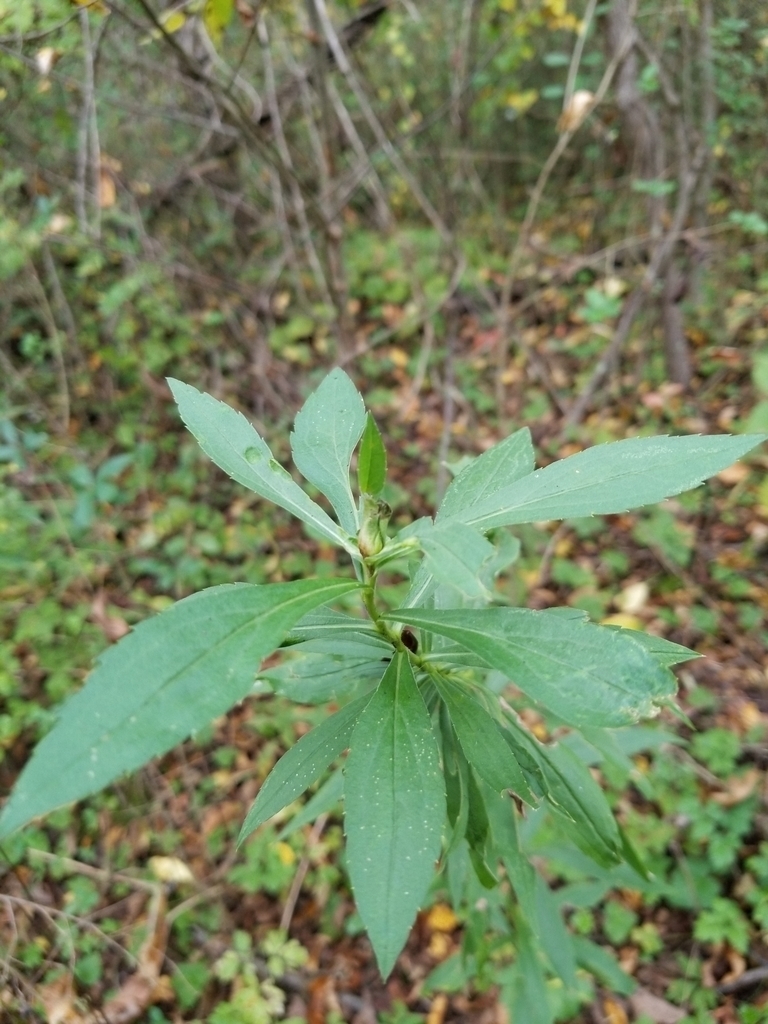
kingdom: Animalia
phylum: Arthropoda
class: Insecta
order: Diptera
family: Cecidomyiidae
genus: Dasineura
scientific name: Dasineura folliculi
